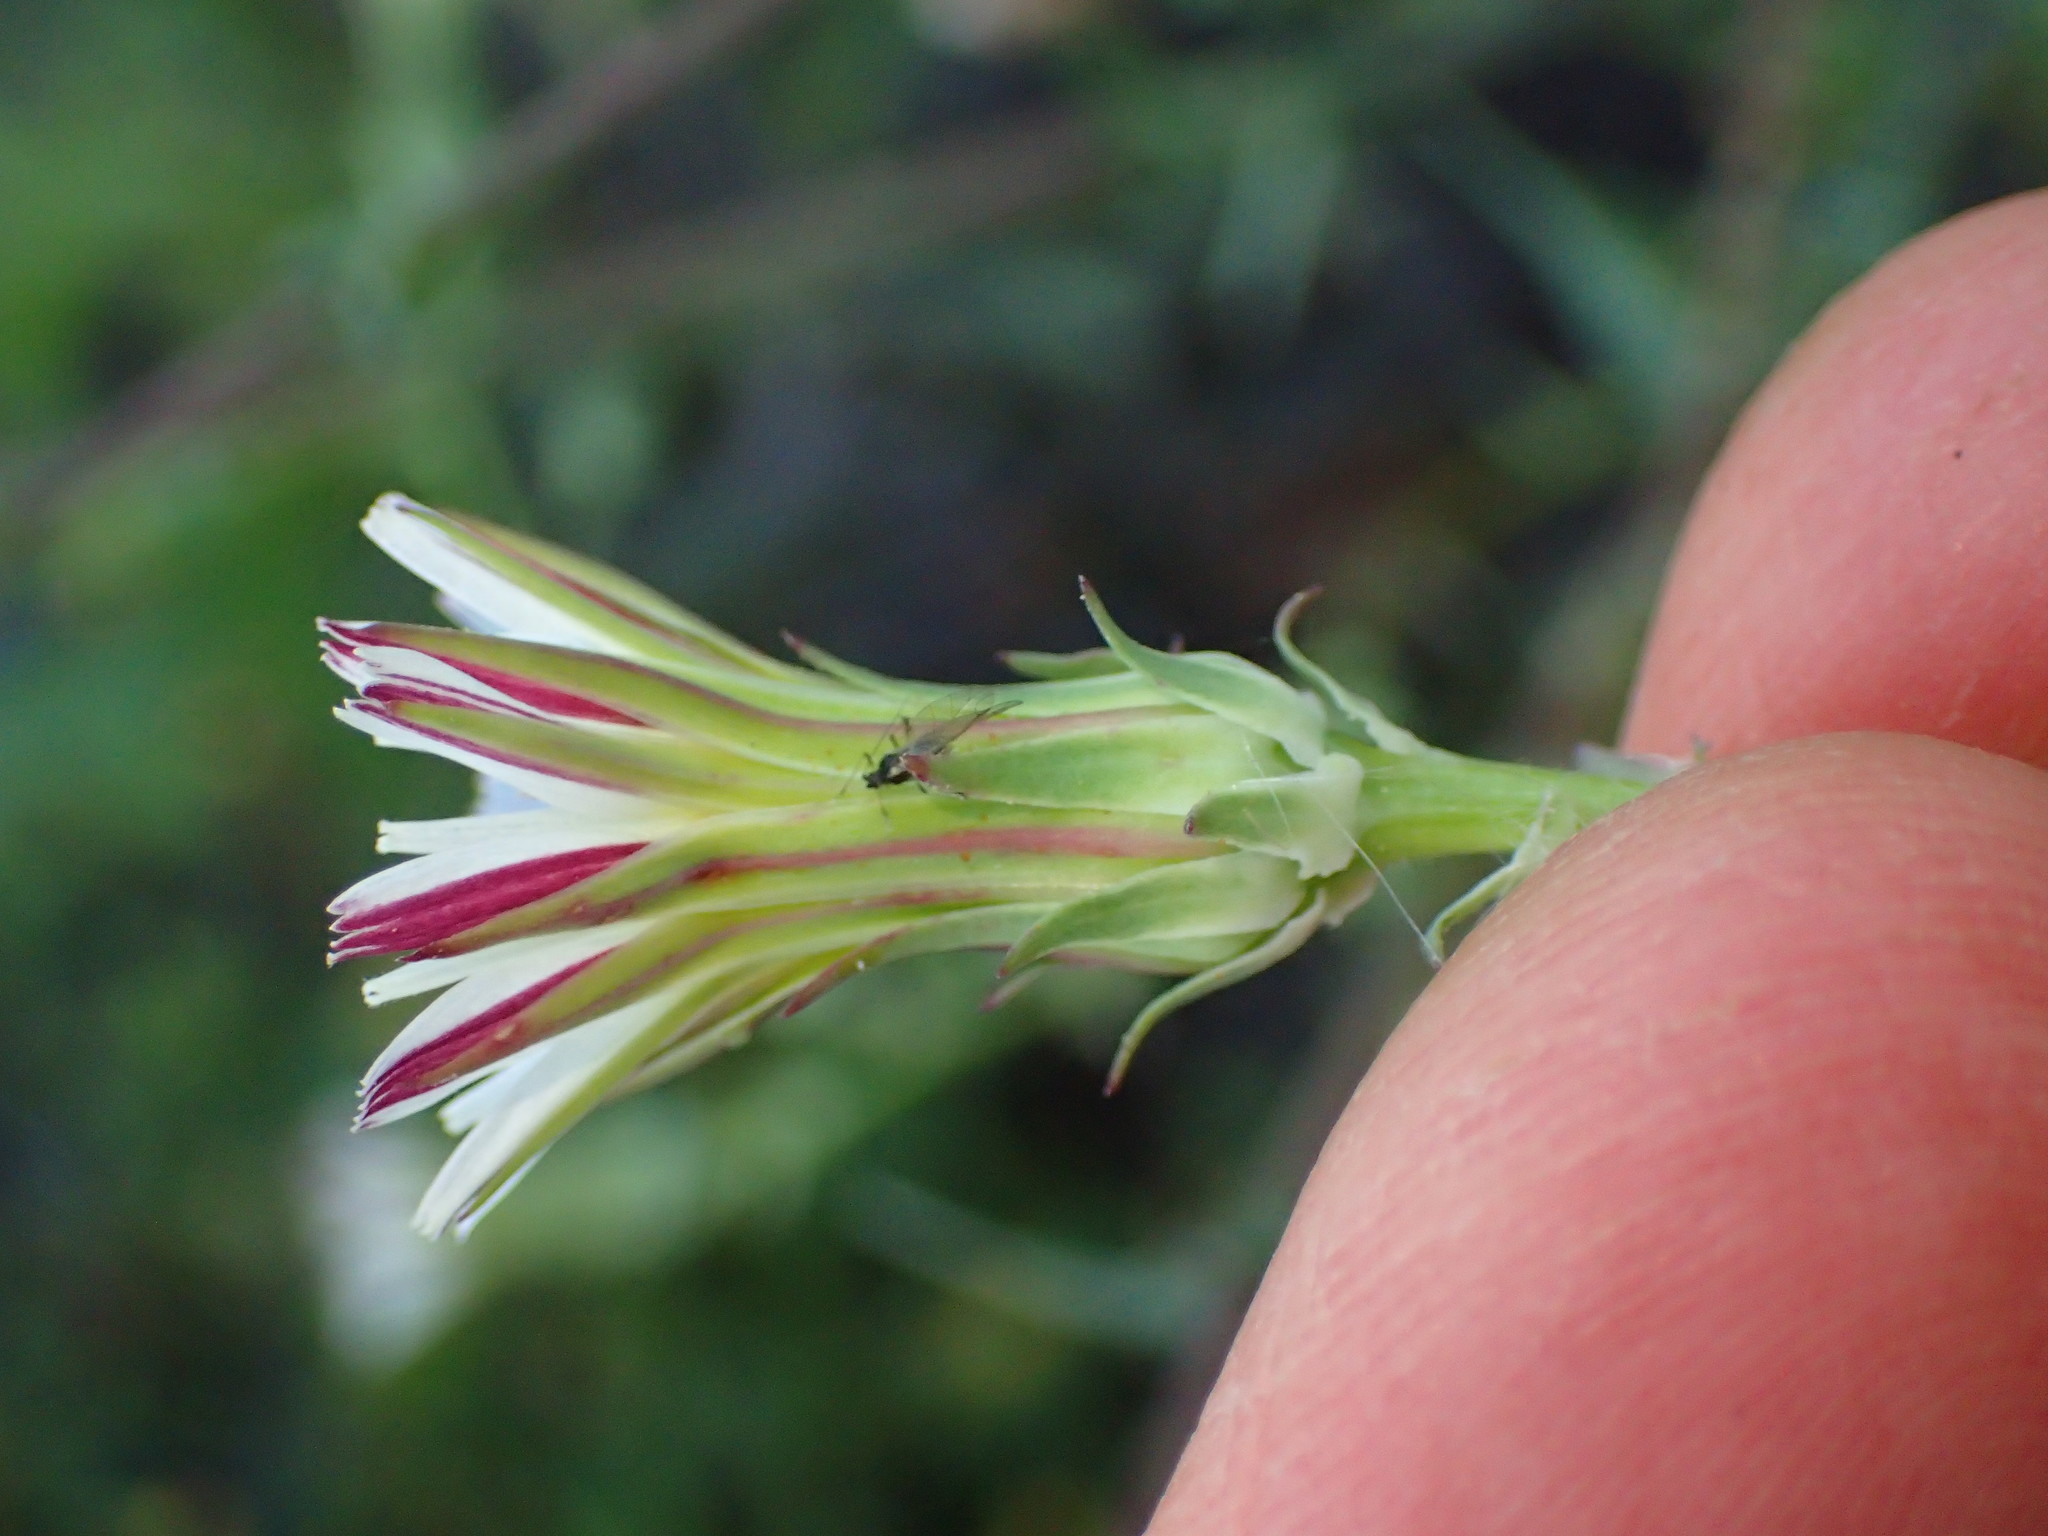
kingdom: Plantae
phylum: Tracheophyta
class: Magnoliopsida
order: Asterales
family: Asteraceae
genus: Rafinesquia
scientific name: Rafinesquia californica
